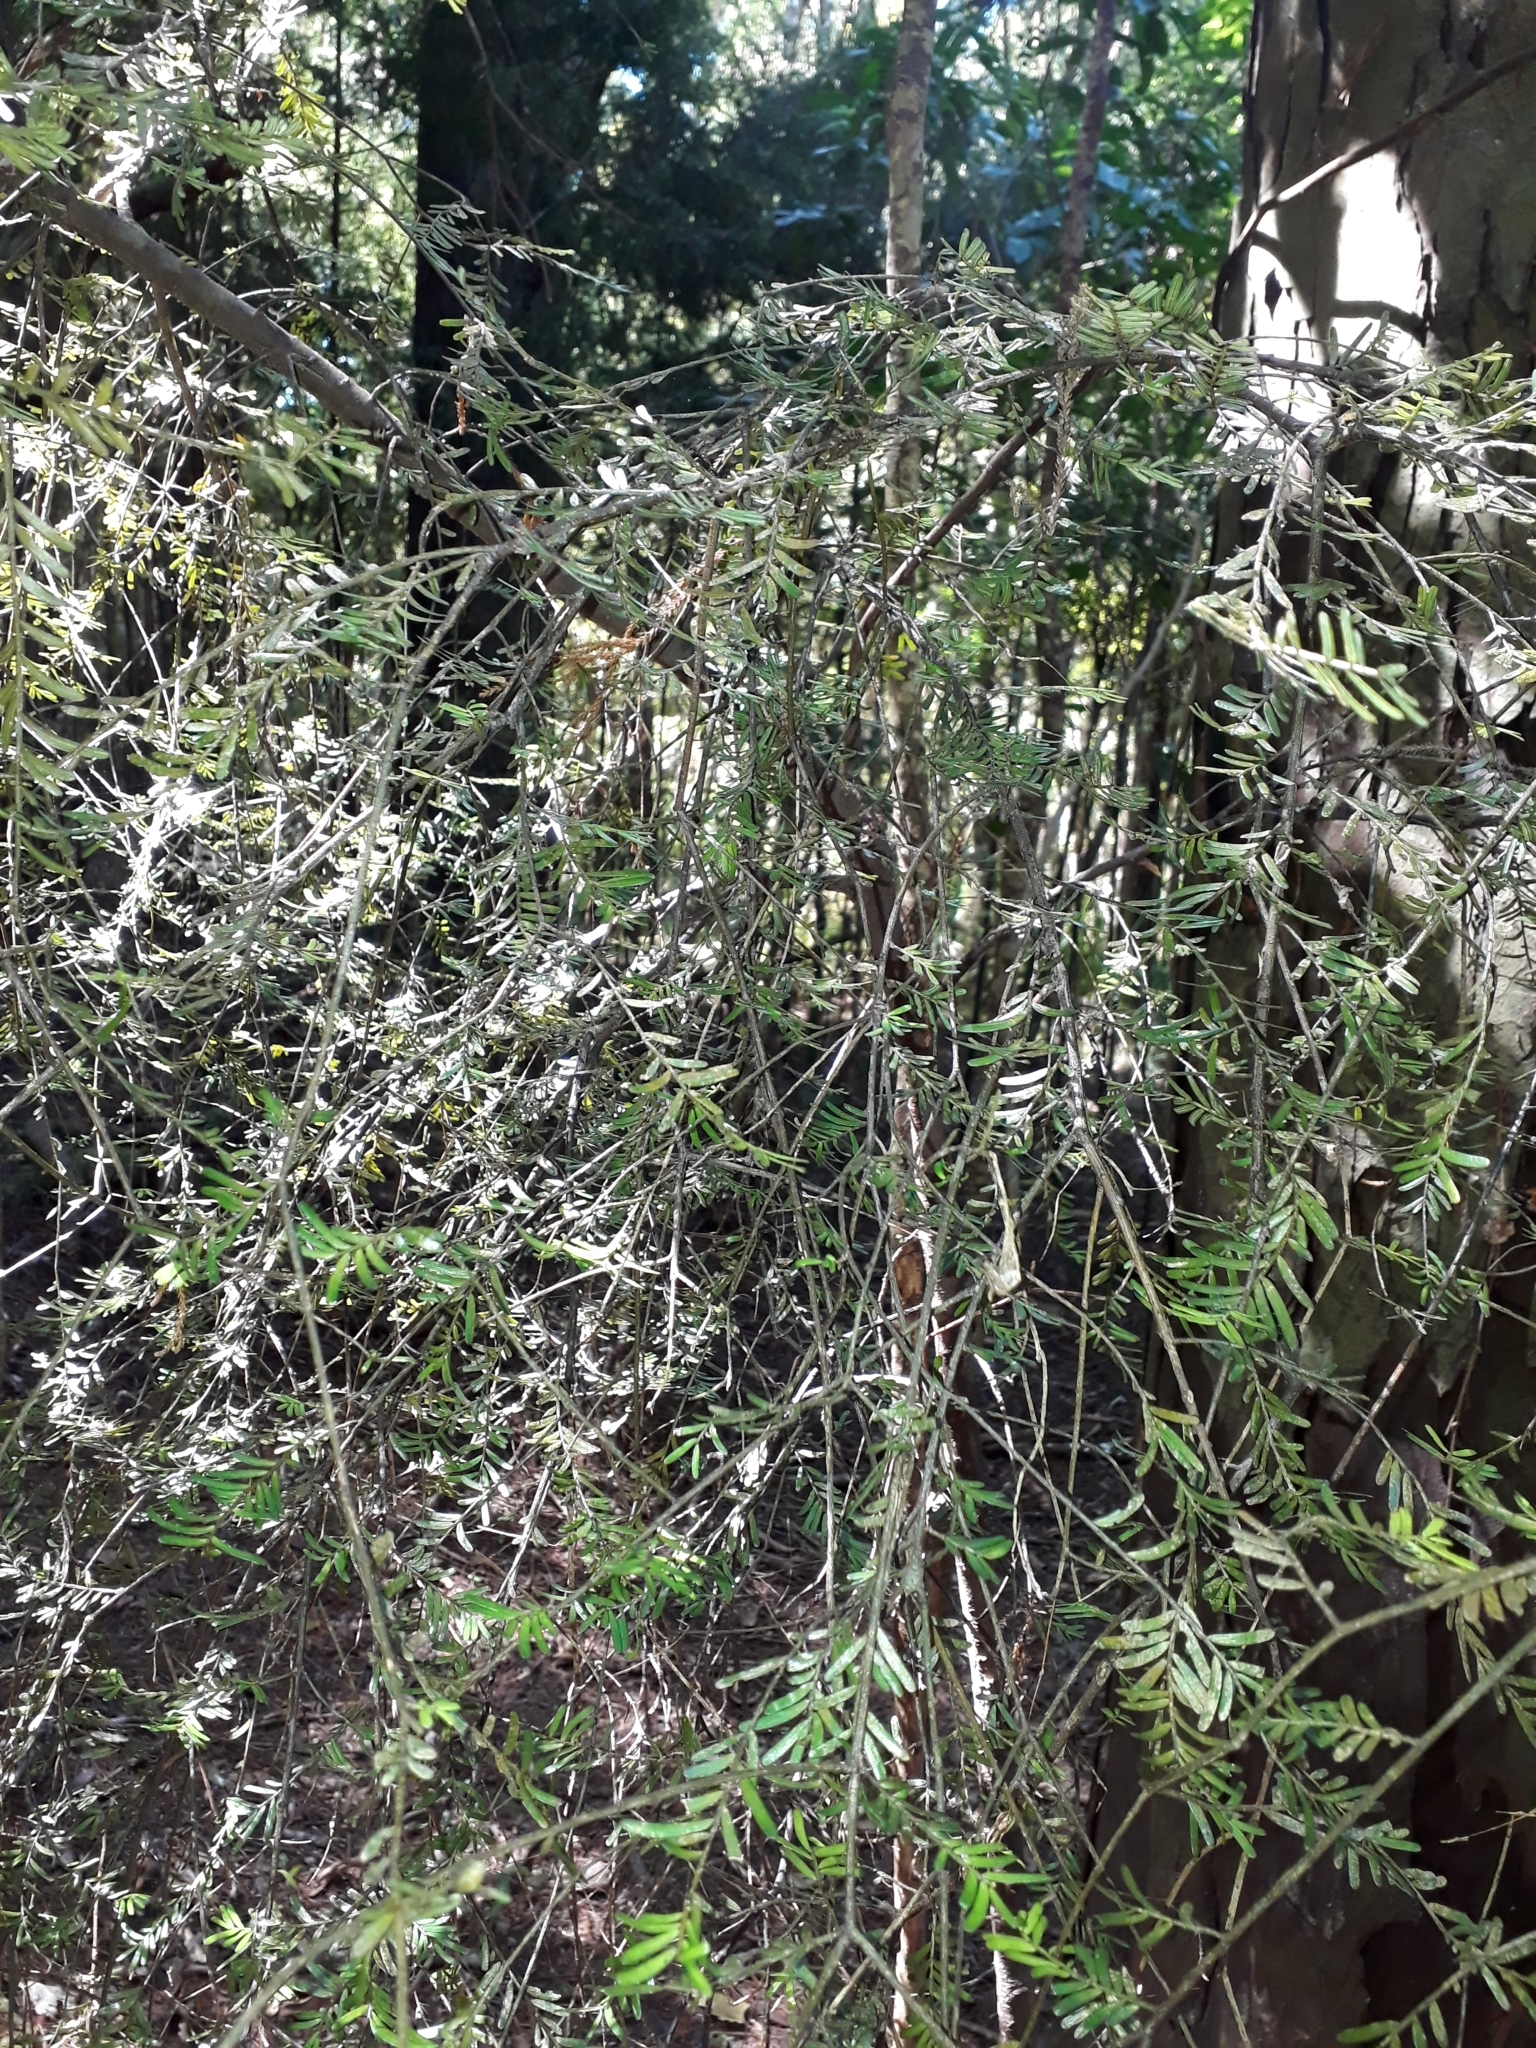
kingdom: Plantae
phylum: Tracheophyta
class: Pinopsida
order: Pinales
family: Podocarpaceae
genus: Prumnopitys
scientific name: Prumnopitys taxifolia
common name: Matai
